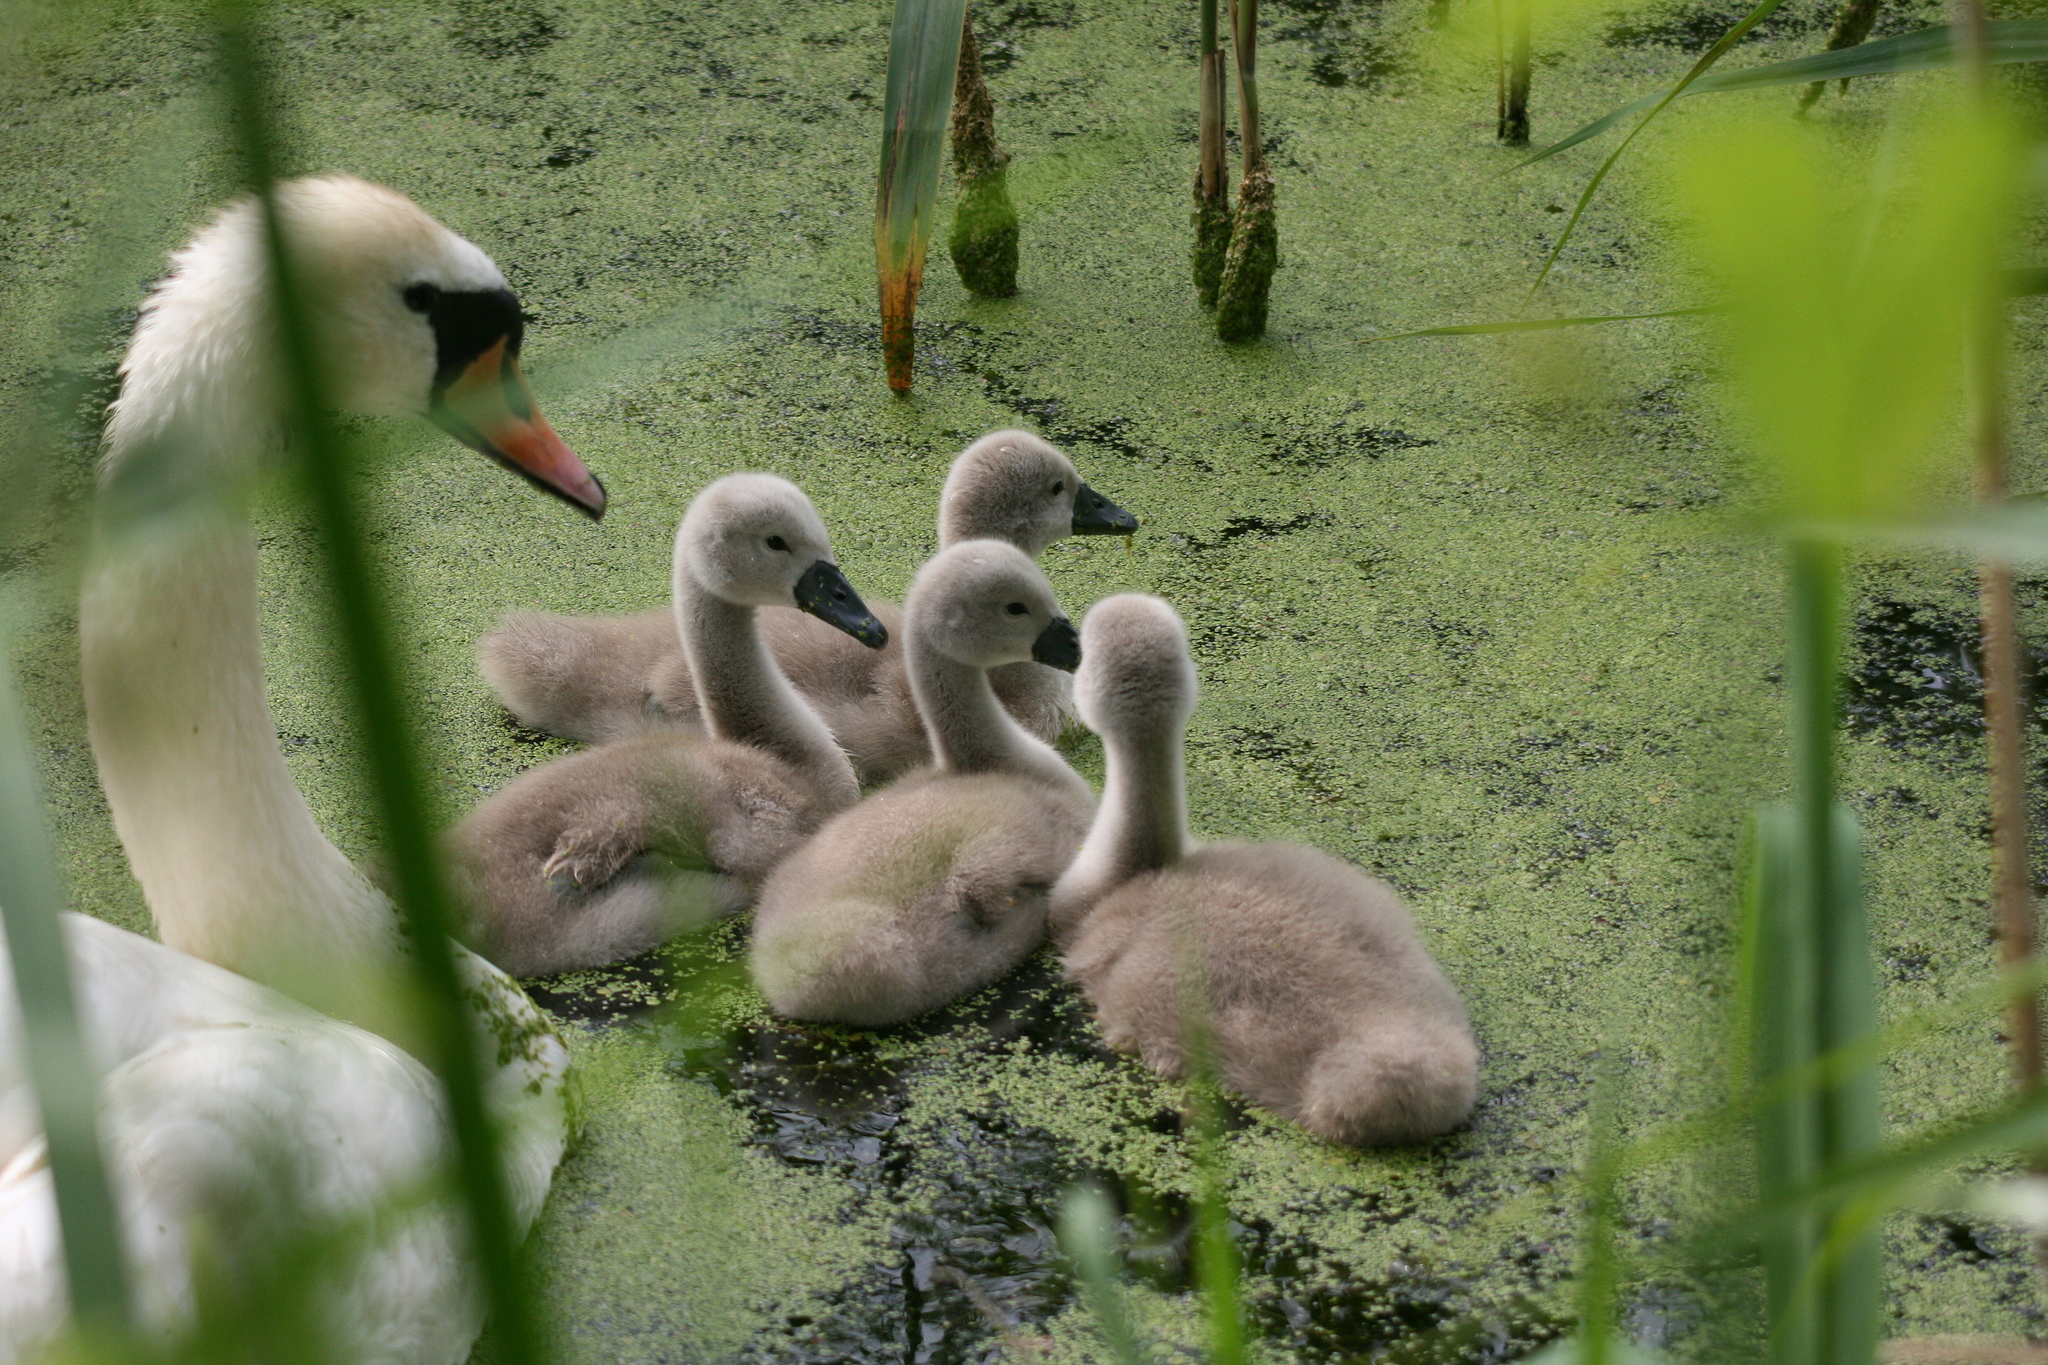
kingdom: Animalia
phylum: Chordata
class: Aves
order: Anseriformes
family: Anatidae
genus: Cygnus
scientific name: Cygnus olor
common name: Mute swan
